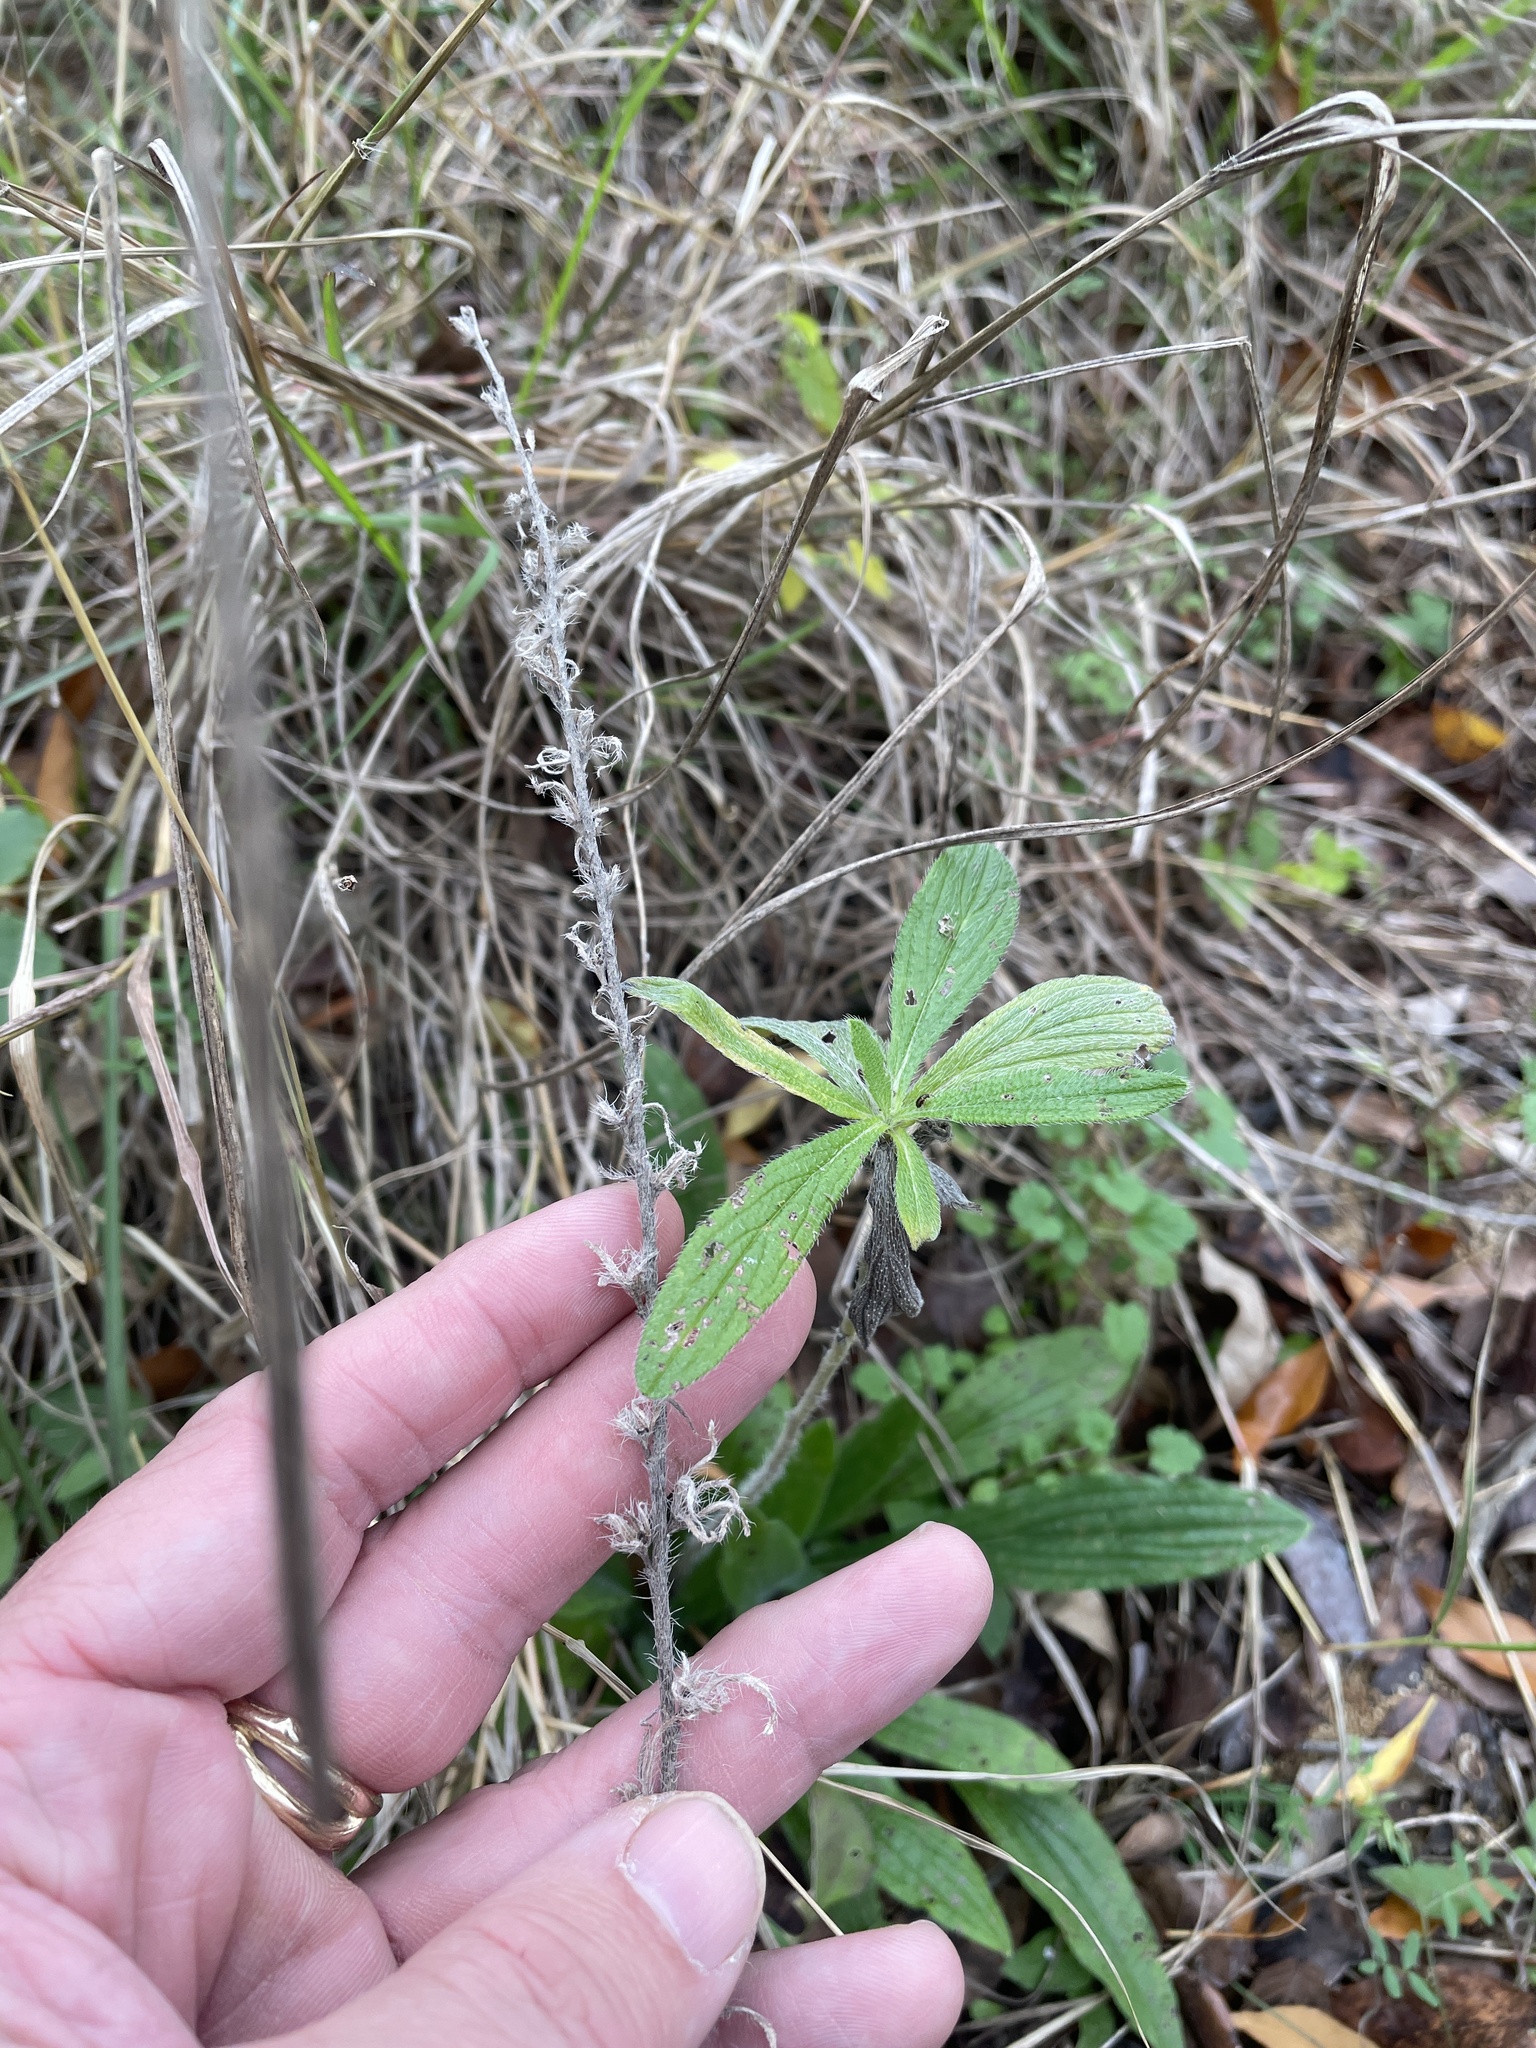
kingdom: Plantae
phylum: Tracheophyta
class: Magnoliopsida
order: Boraginales
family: Boraginaceae
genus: Lithospermum
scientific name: Lithospermum caroliniense
